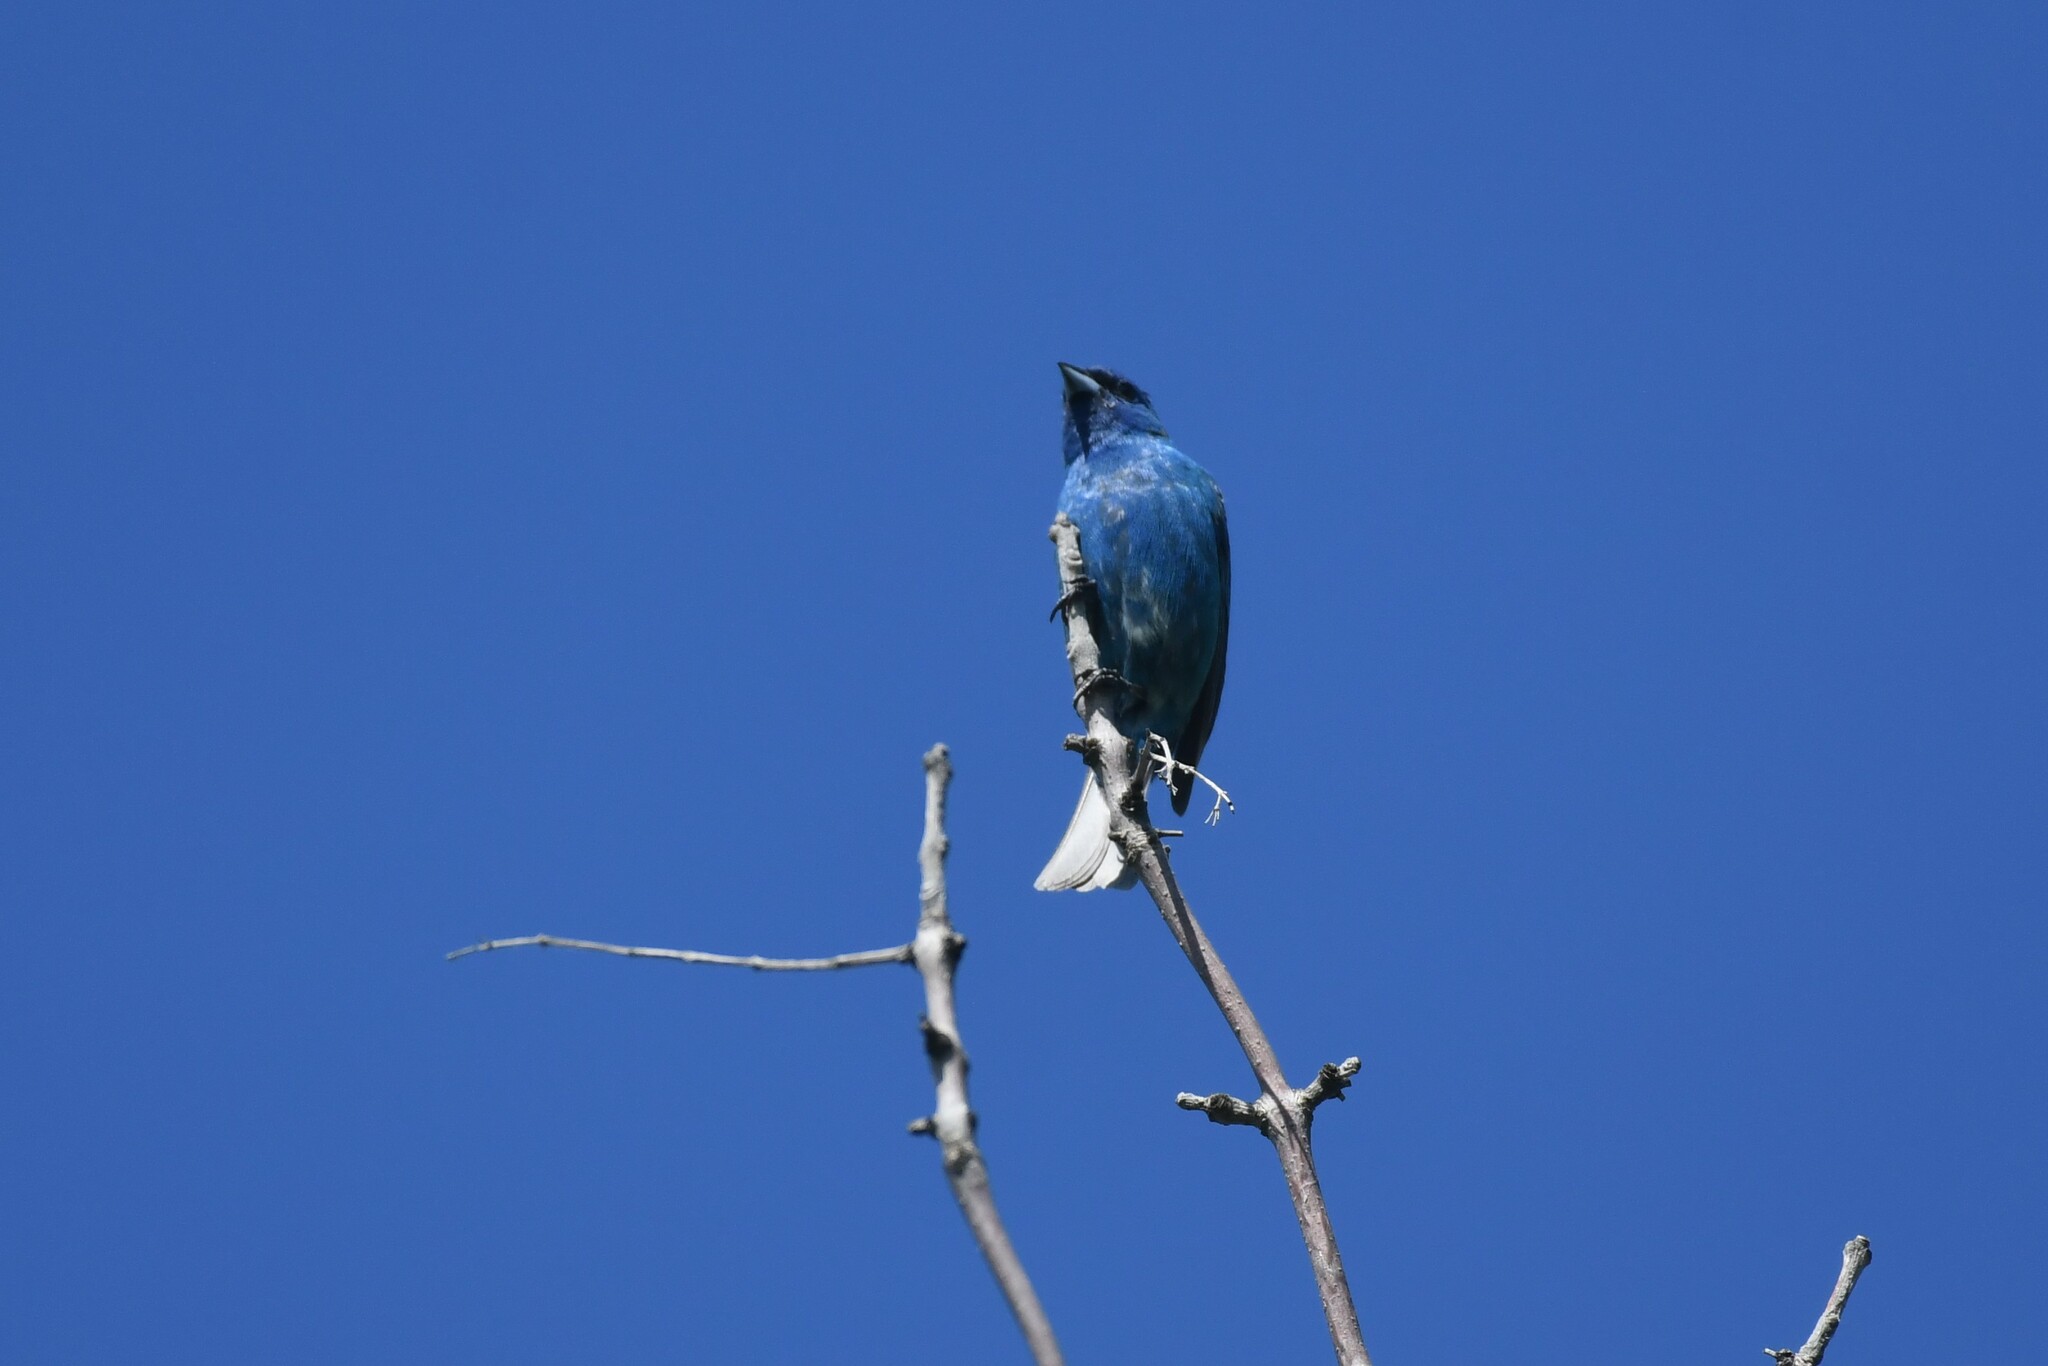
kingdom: Animalia
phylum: Chordata
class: Aves
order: Passeriformes
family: Cardinalidae
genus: Passerina
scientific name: Passerina cyanea
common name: Indigo bunting
